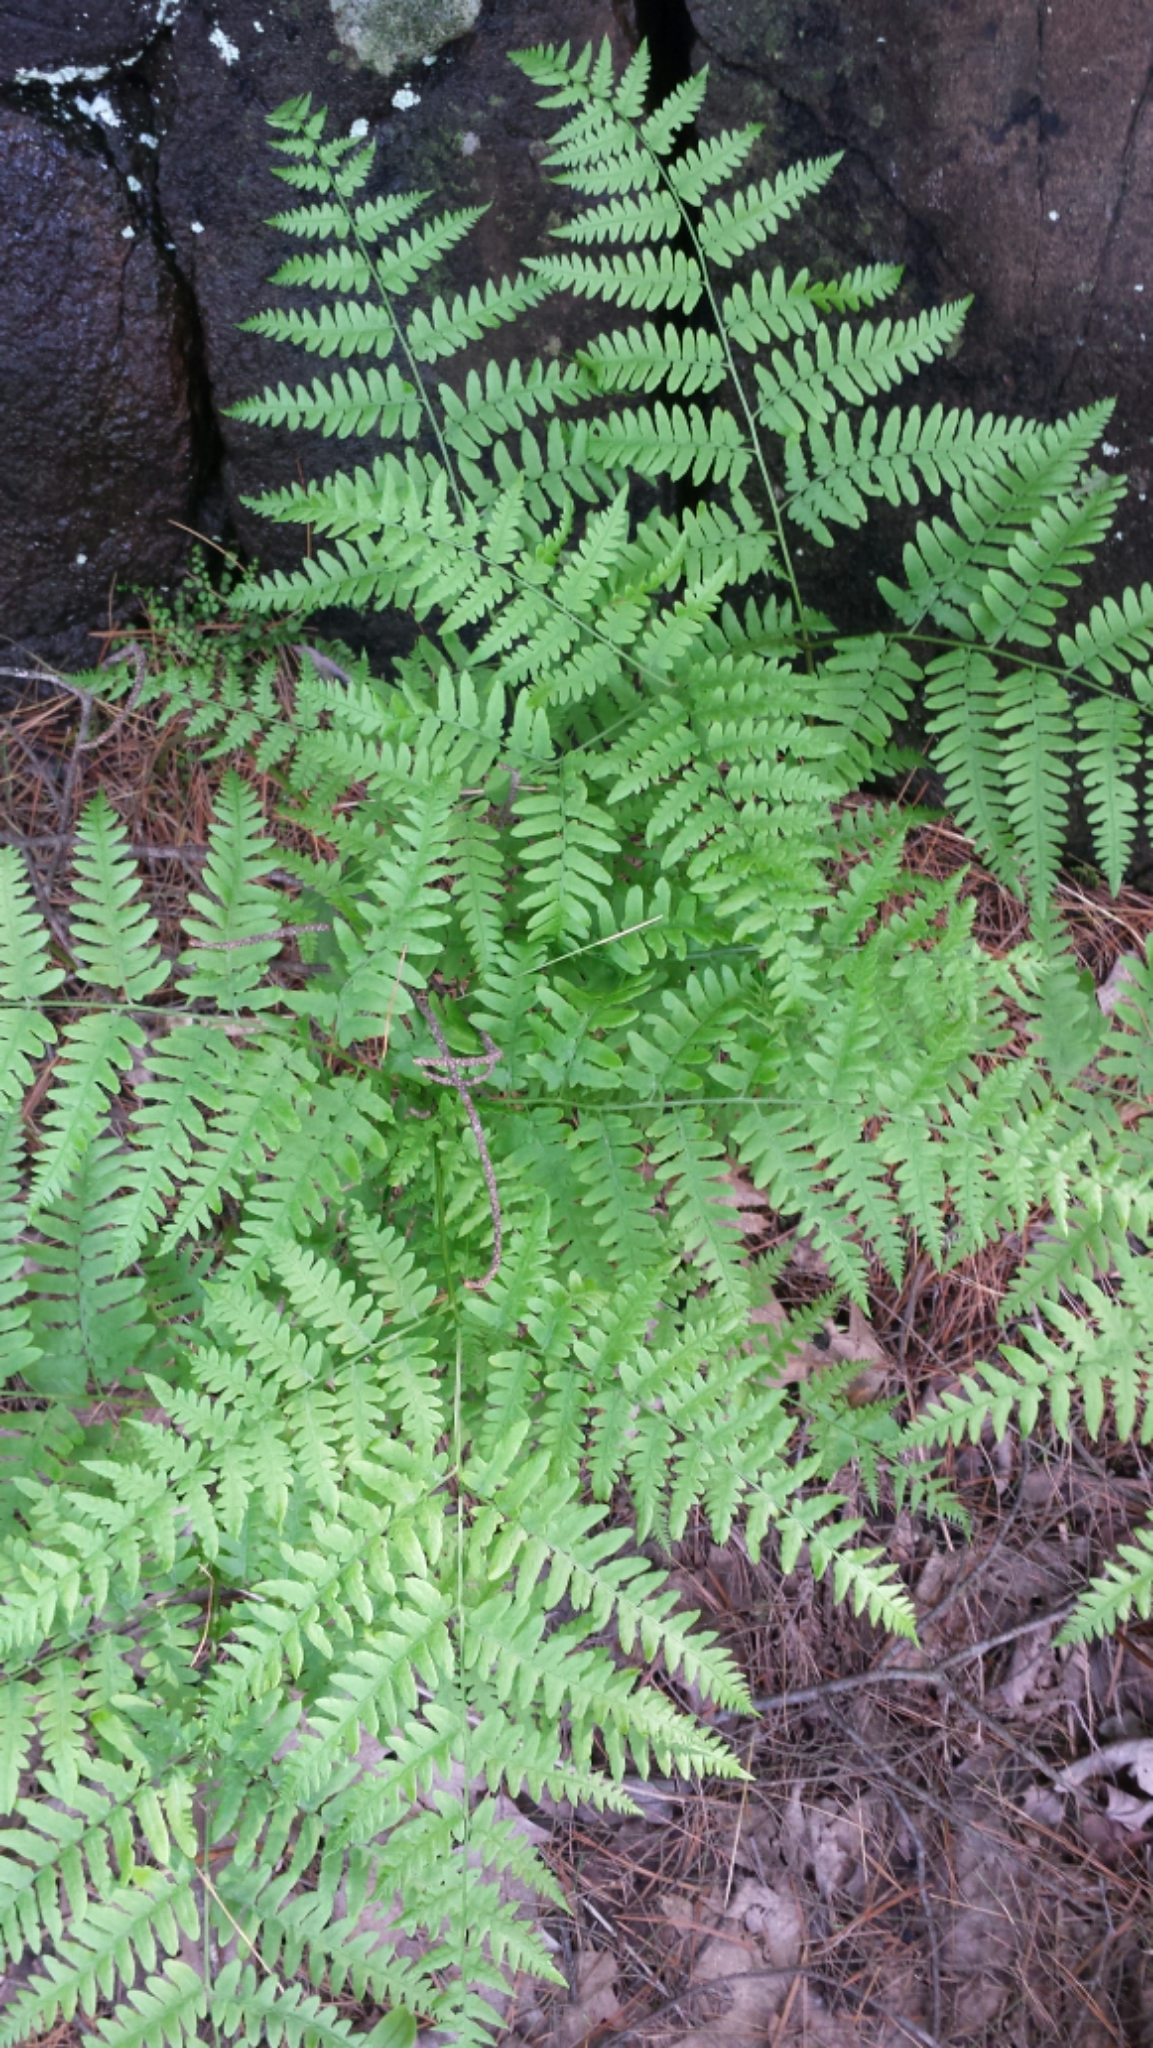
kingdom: Plantae
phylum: Tracheophyta
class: Polypodiopsida
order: Polypodiales
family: Dennstaedtiaceae
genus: Pteridium
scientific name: Pteridium aquilinum
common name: Bracken
